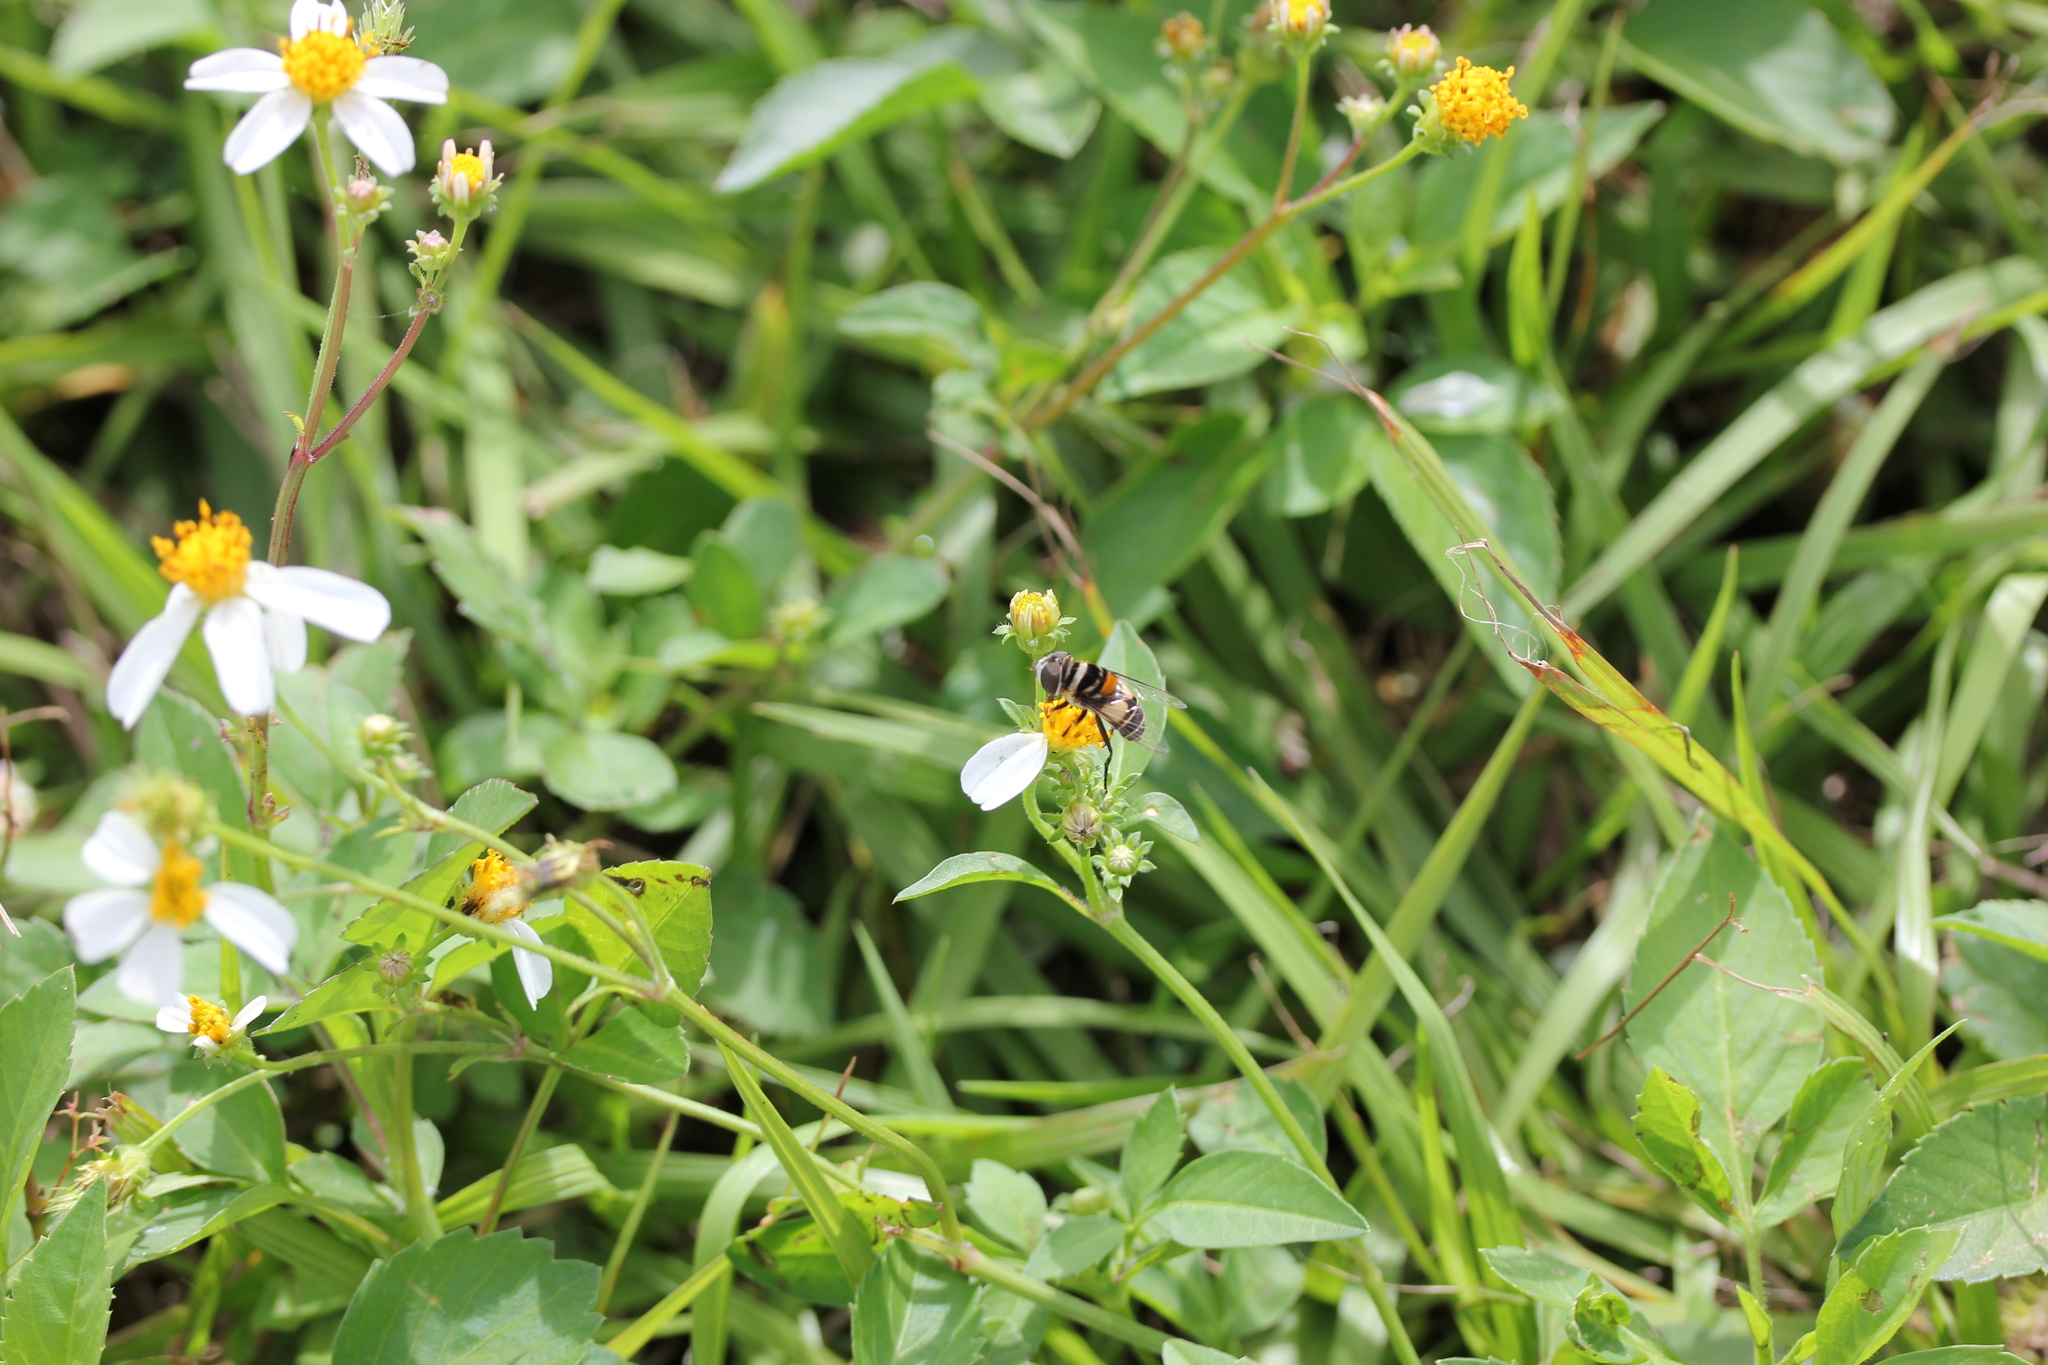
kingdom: Plantae
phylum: Tracheophyta
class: Magnoliopsida
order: Asterales
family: Asteraceae
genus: Bidens
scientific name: Bidens alba
